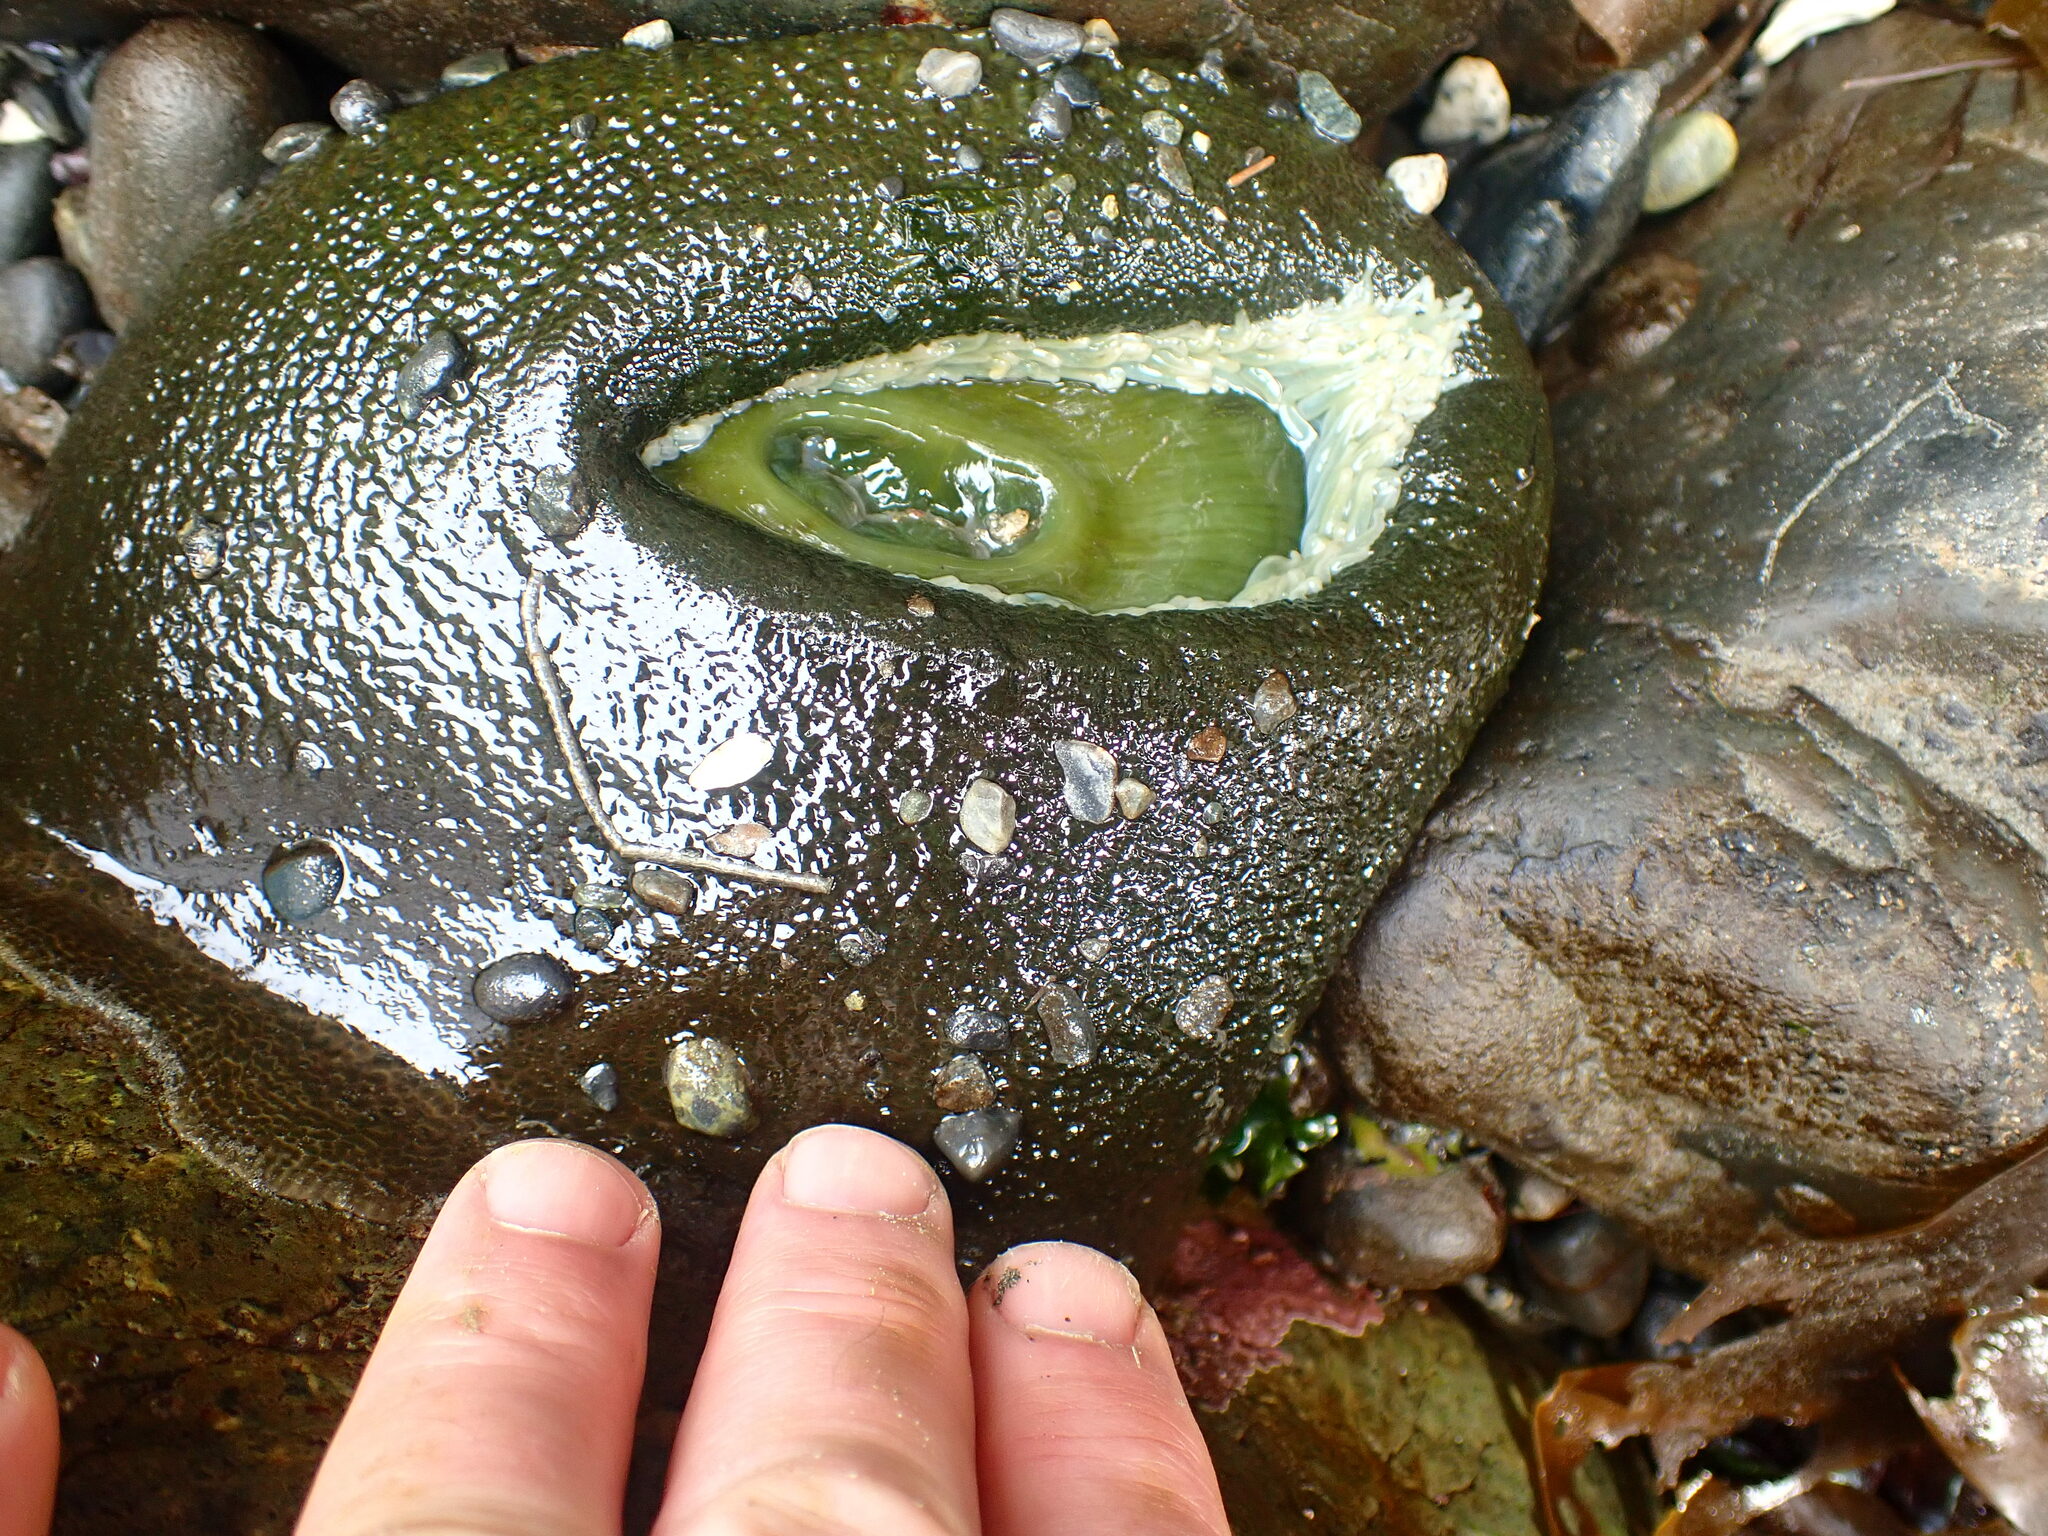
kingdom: Animalia
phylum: Cnidaria
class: Anthozoa
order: Actiniaria
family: Actiniidae
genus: Anthopleura
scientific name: Anthopleura xanthogrammica
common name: Giant green anemone
